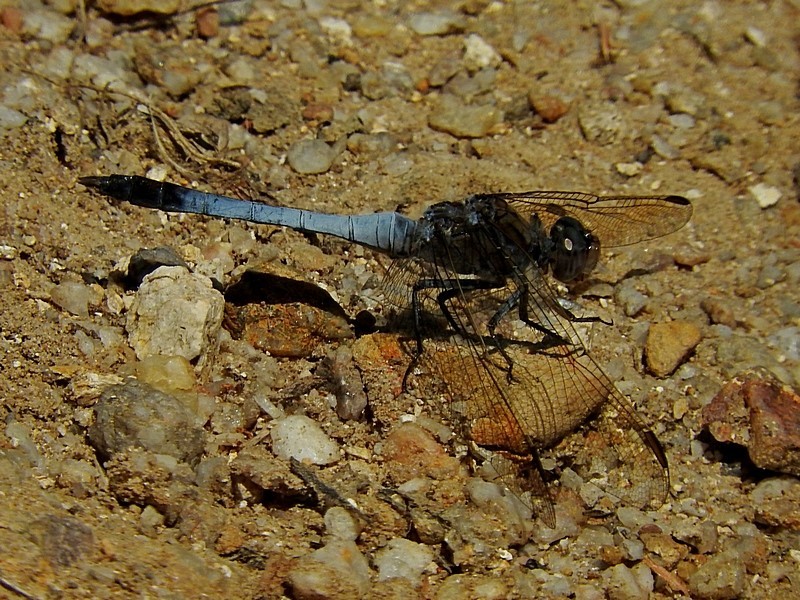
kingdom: Animalia
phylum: Arthropoda
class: Insecta
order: Odonata
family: Libellulidae
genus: Orthetrum
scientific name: Orthetrum caledonicum
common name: Blue skimmer
